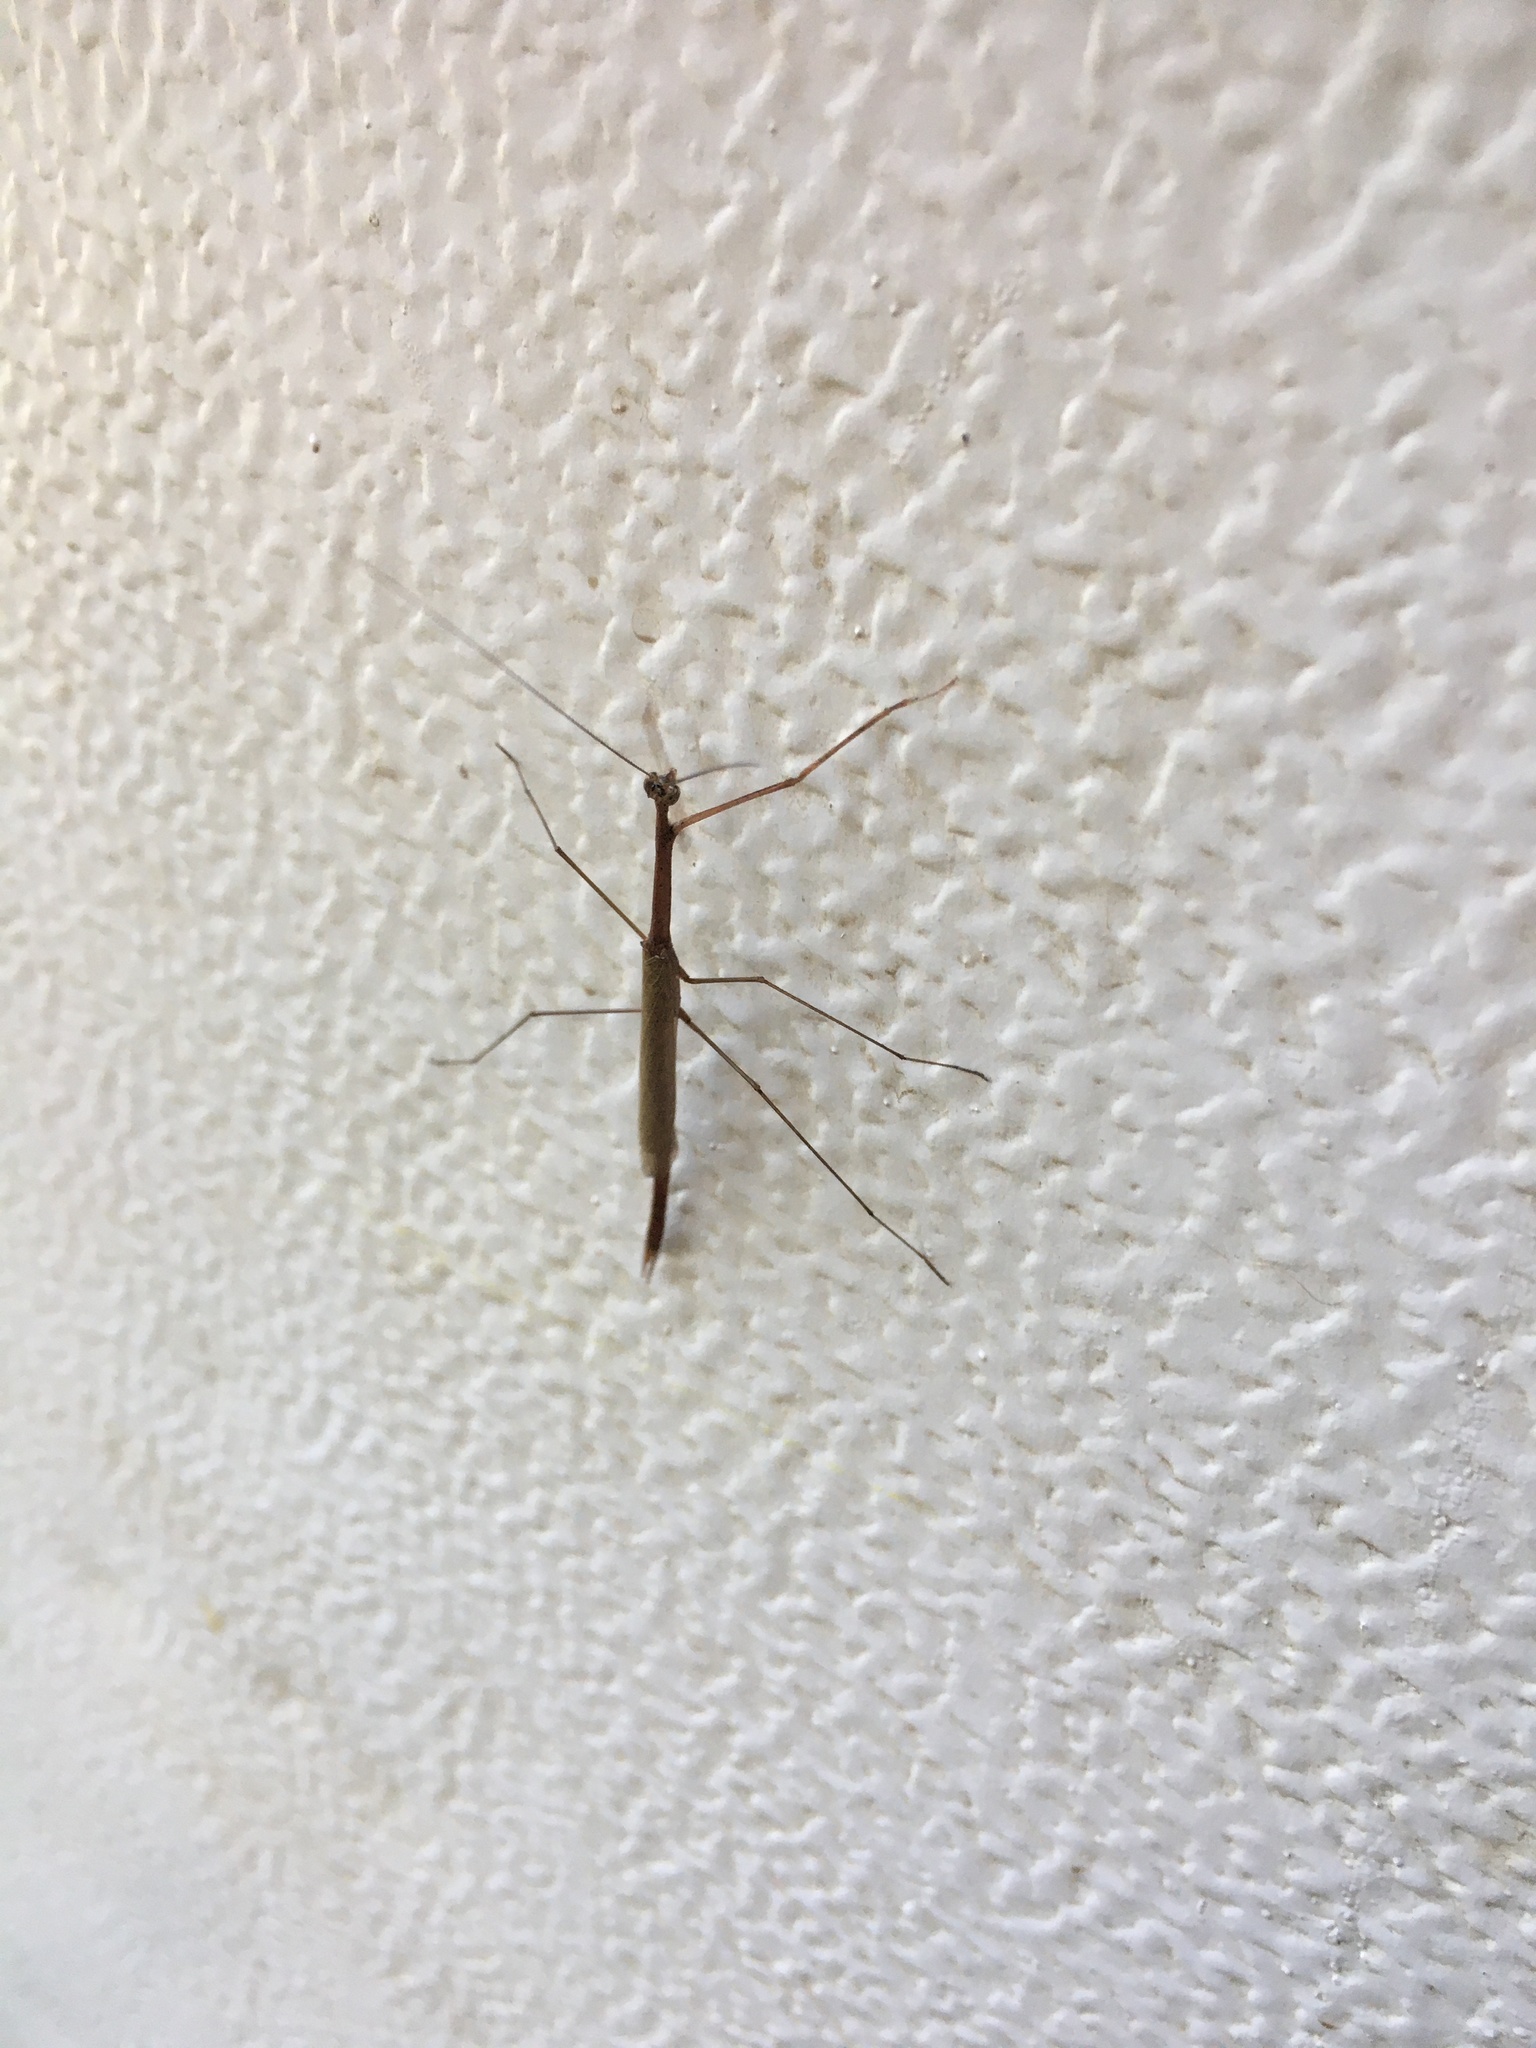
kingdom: Animalia
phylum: Arthropoda
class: Insecta
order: Mantodea
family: Thespidae
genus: Thesprotia
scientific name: Thesprotia graminis
